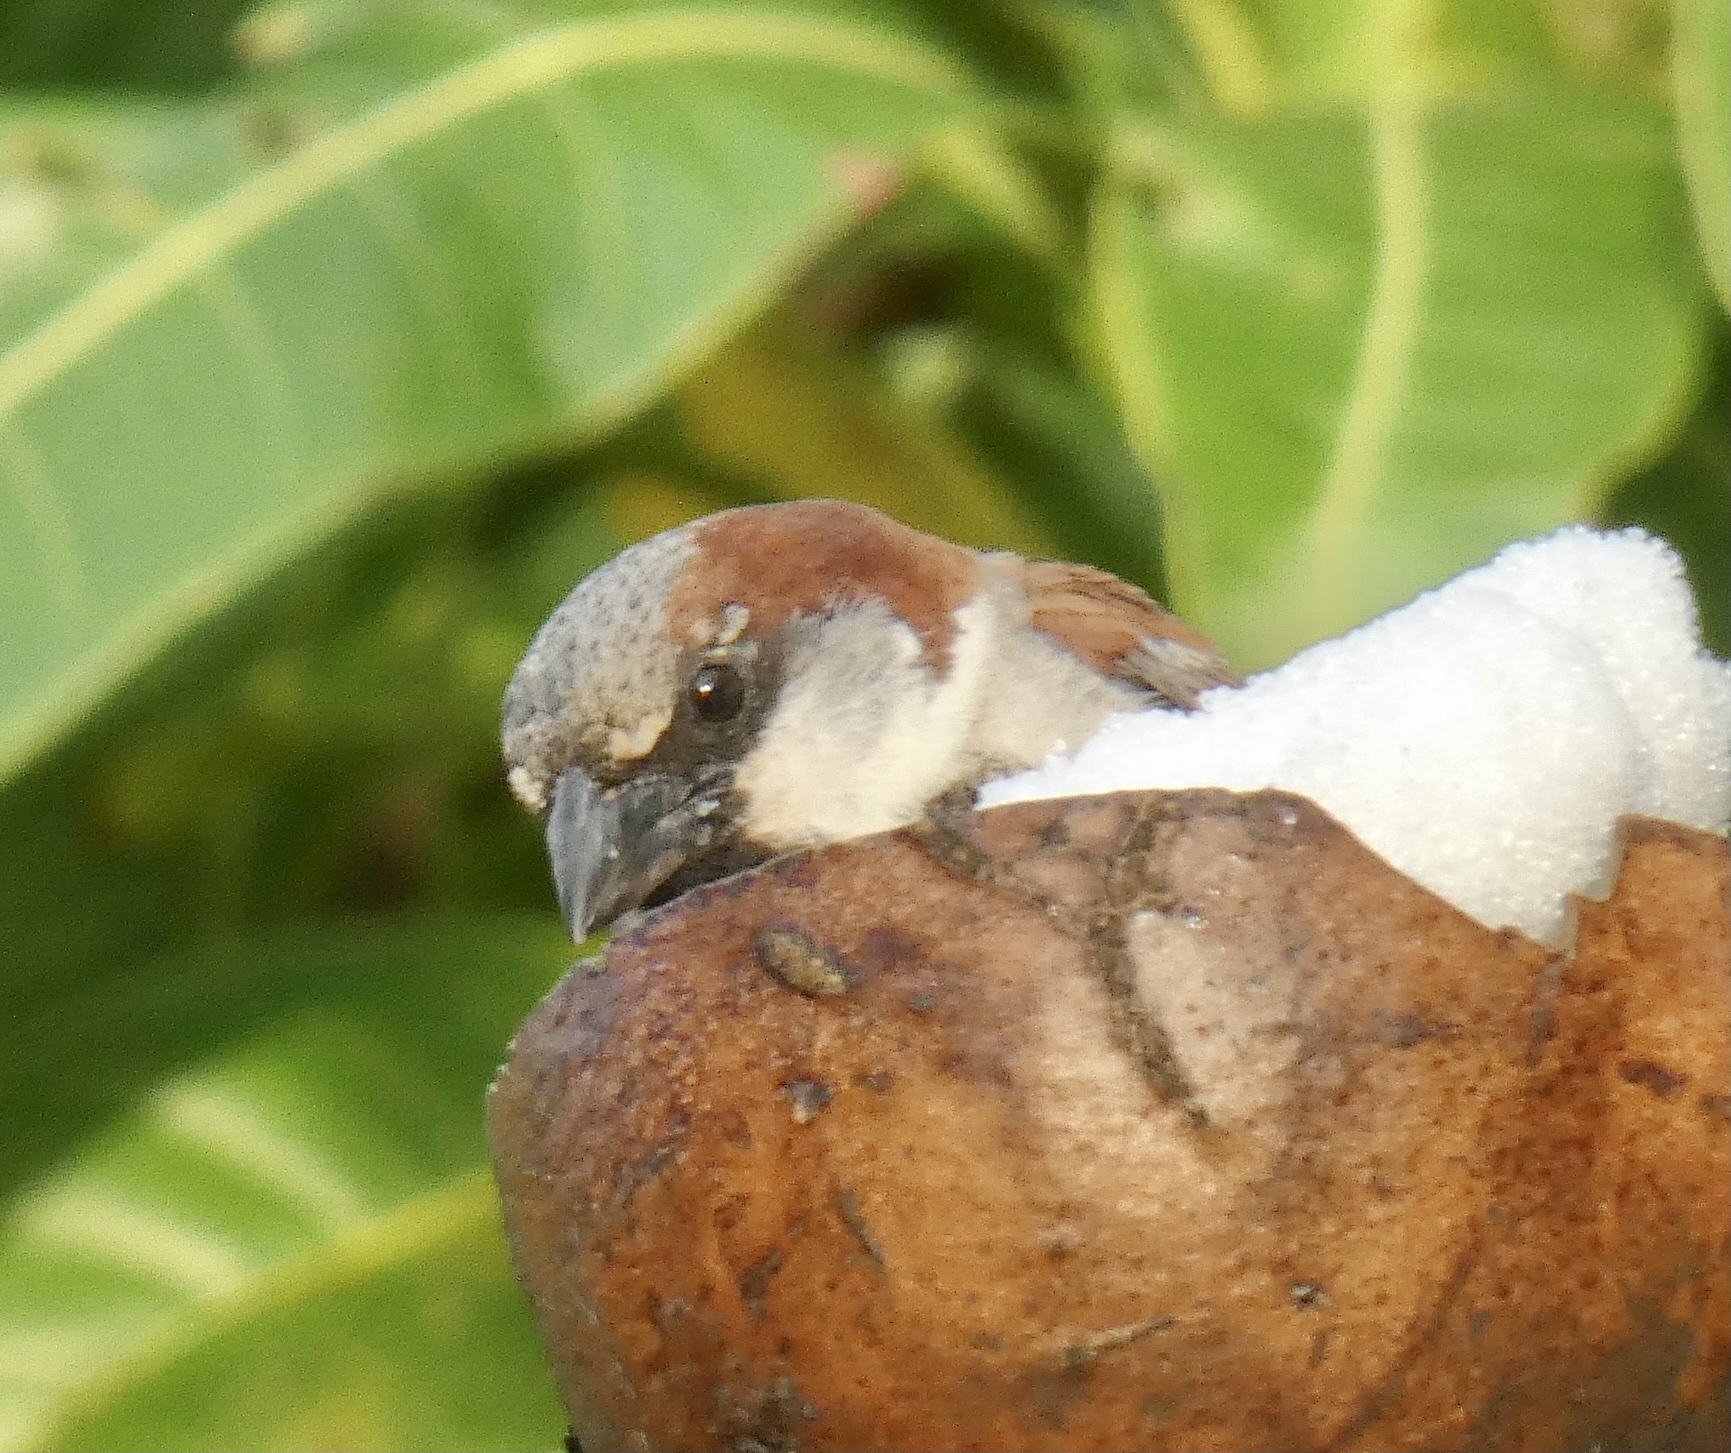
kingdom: Animalia
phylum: Chordata
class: Aves
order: Passeriformes
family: Passeridae
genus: Passer
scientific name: Passer domesticus
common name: House sparrow
